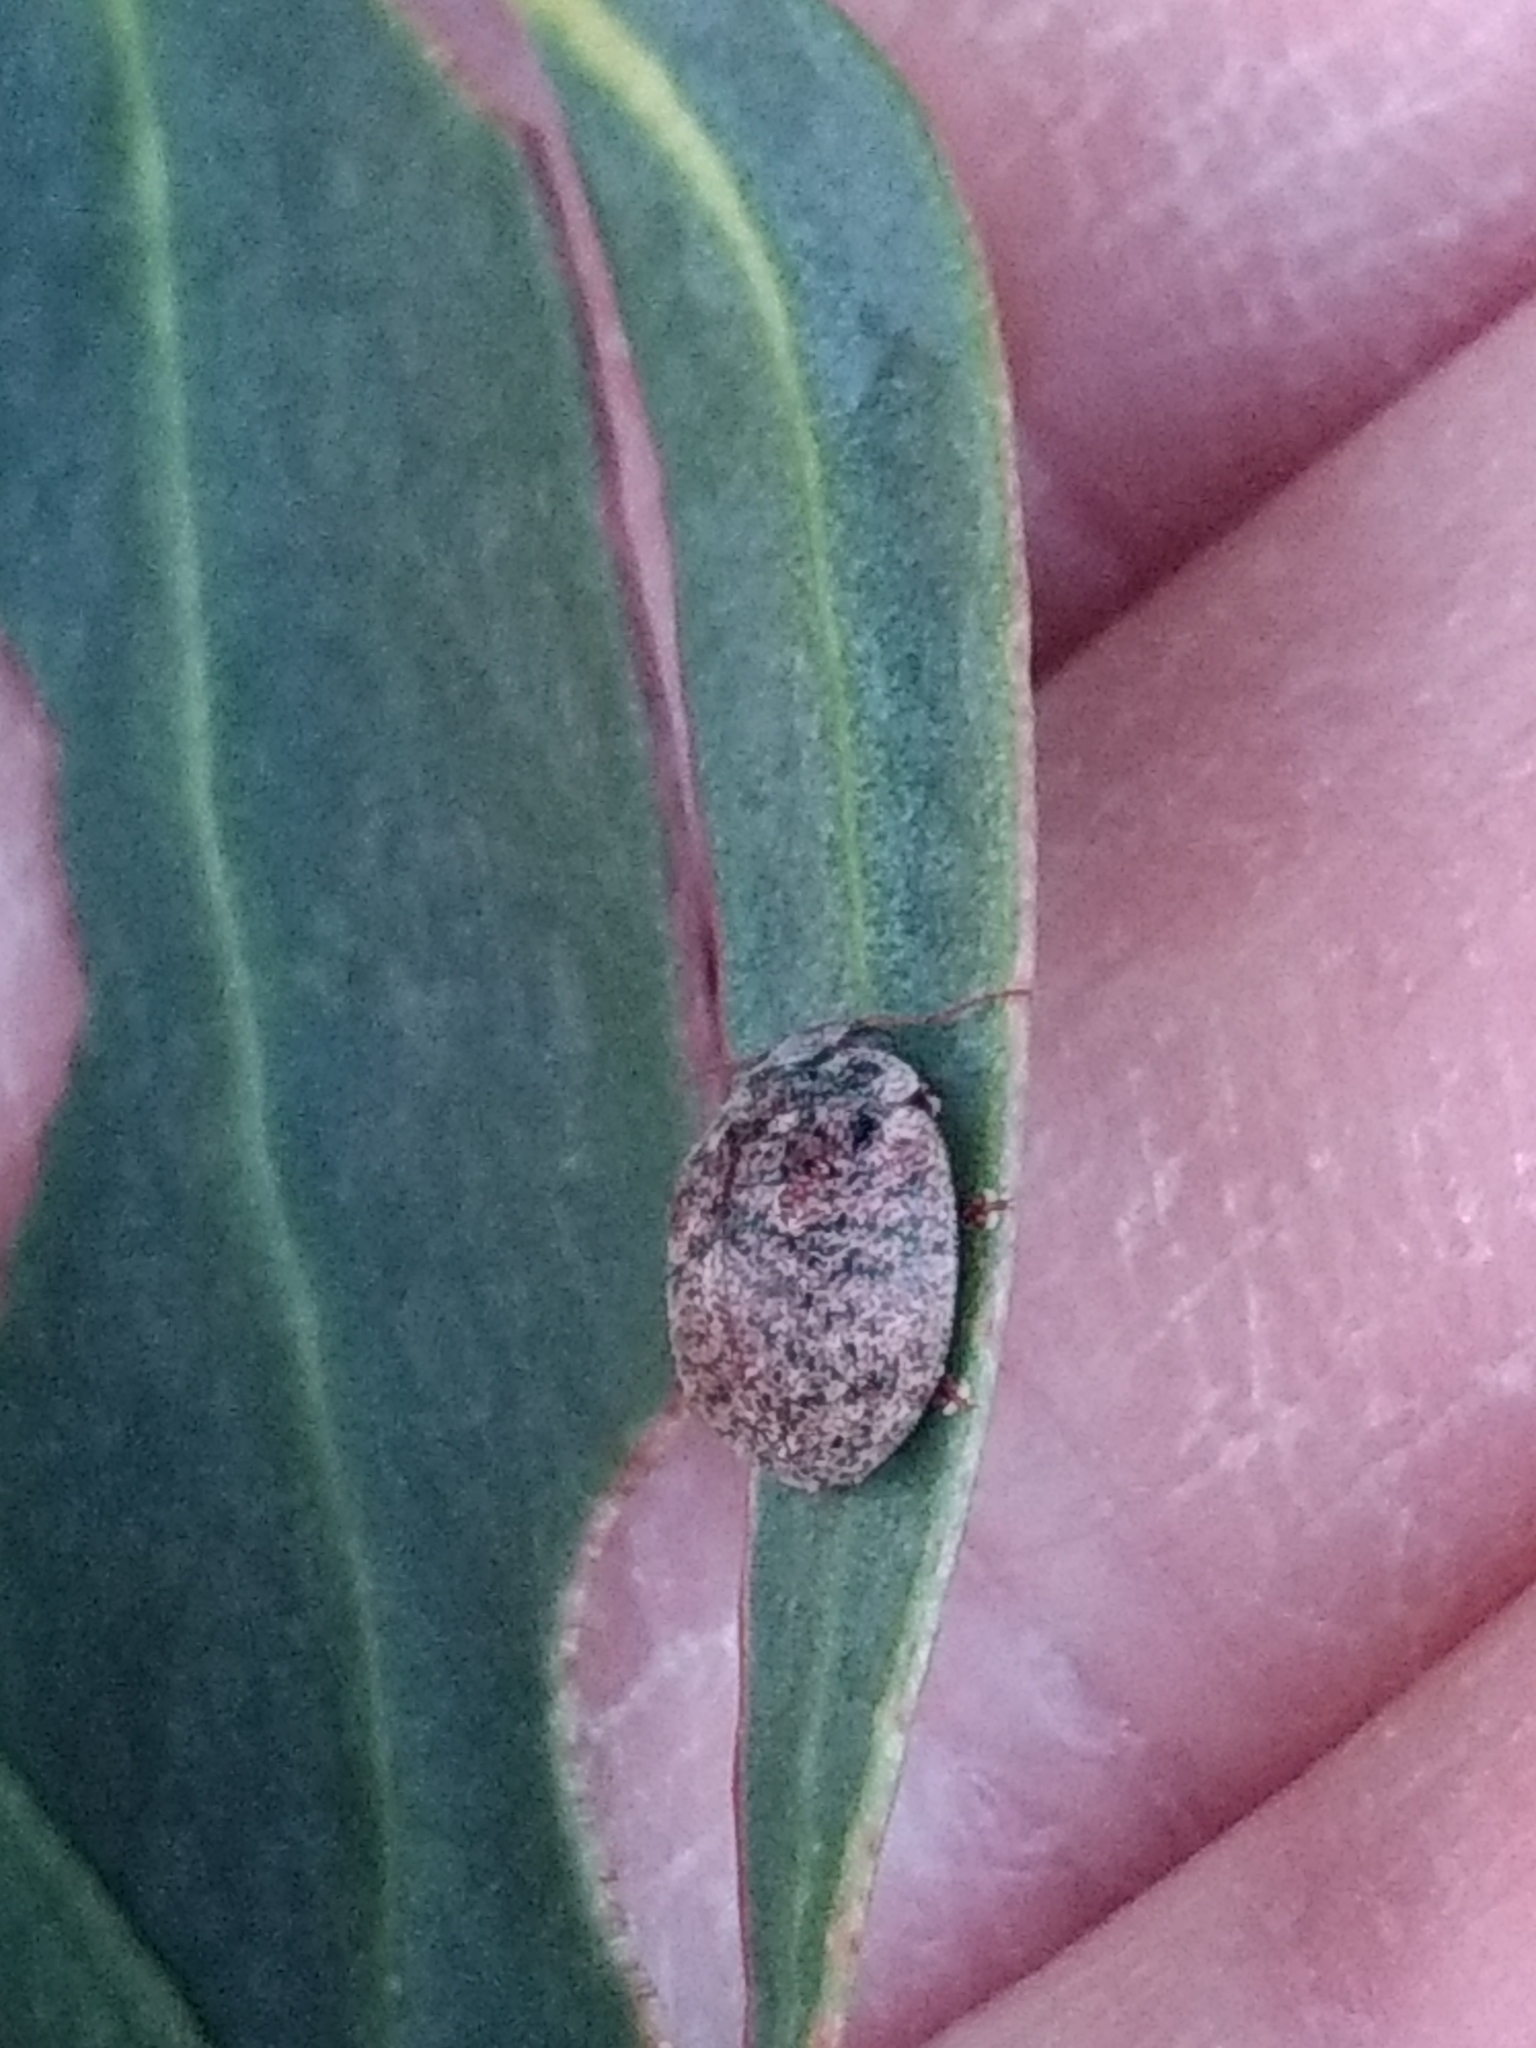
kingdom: Animalia
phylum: Arthropoda
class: Insecta
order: Coleoptera
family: Chrysomelidae
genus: Trachymela
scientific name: Trachymela sloanei
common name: Australian tortoise beetle
